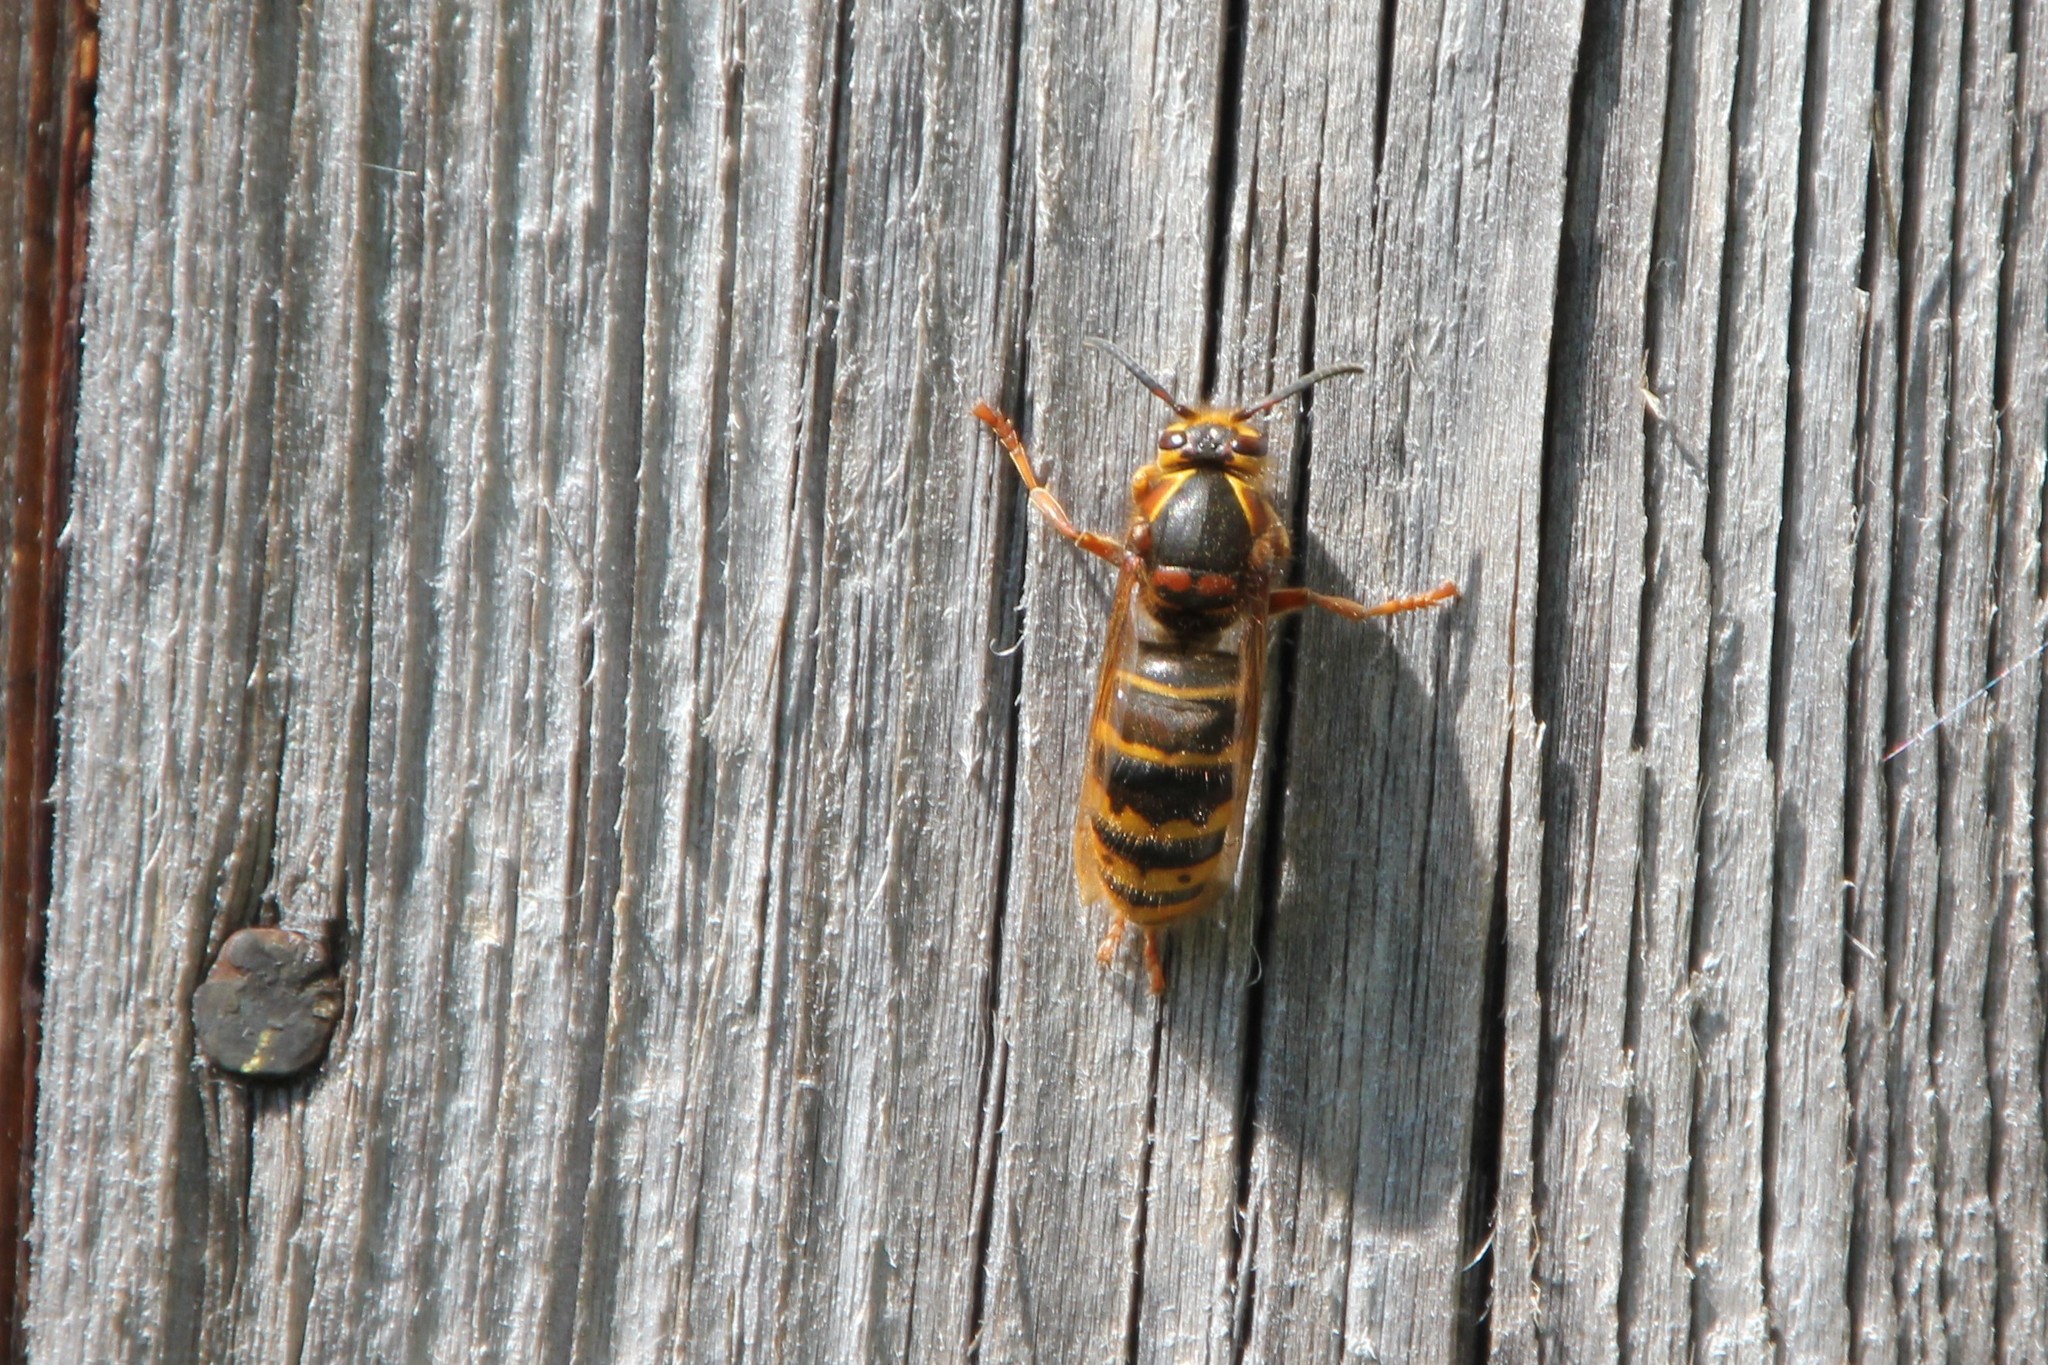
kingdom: Animalia
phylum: Arthropoda
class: Insecta
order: Hymenoptera
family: Vespidae
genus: Dolichovespula
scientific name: Dolichovespula media
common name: Median wasp
